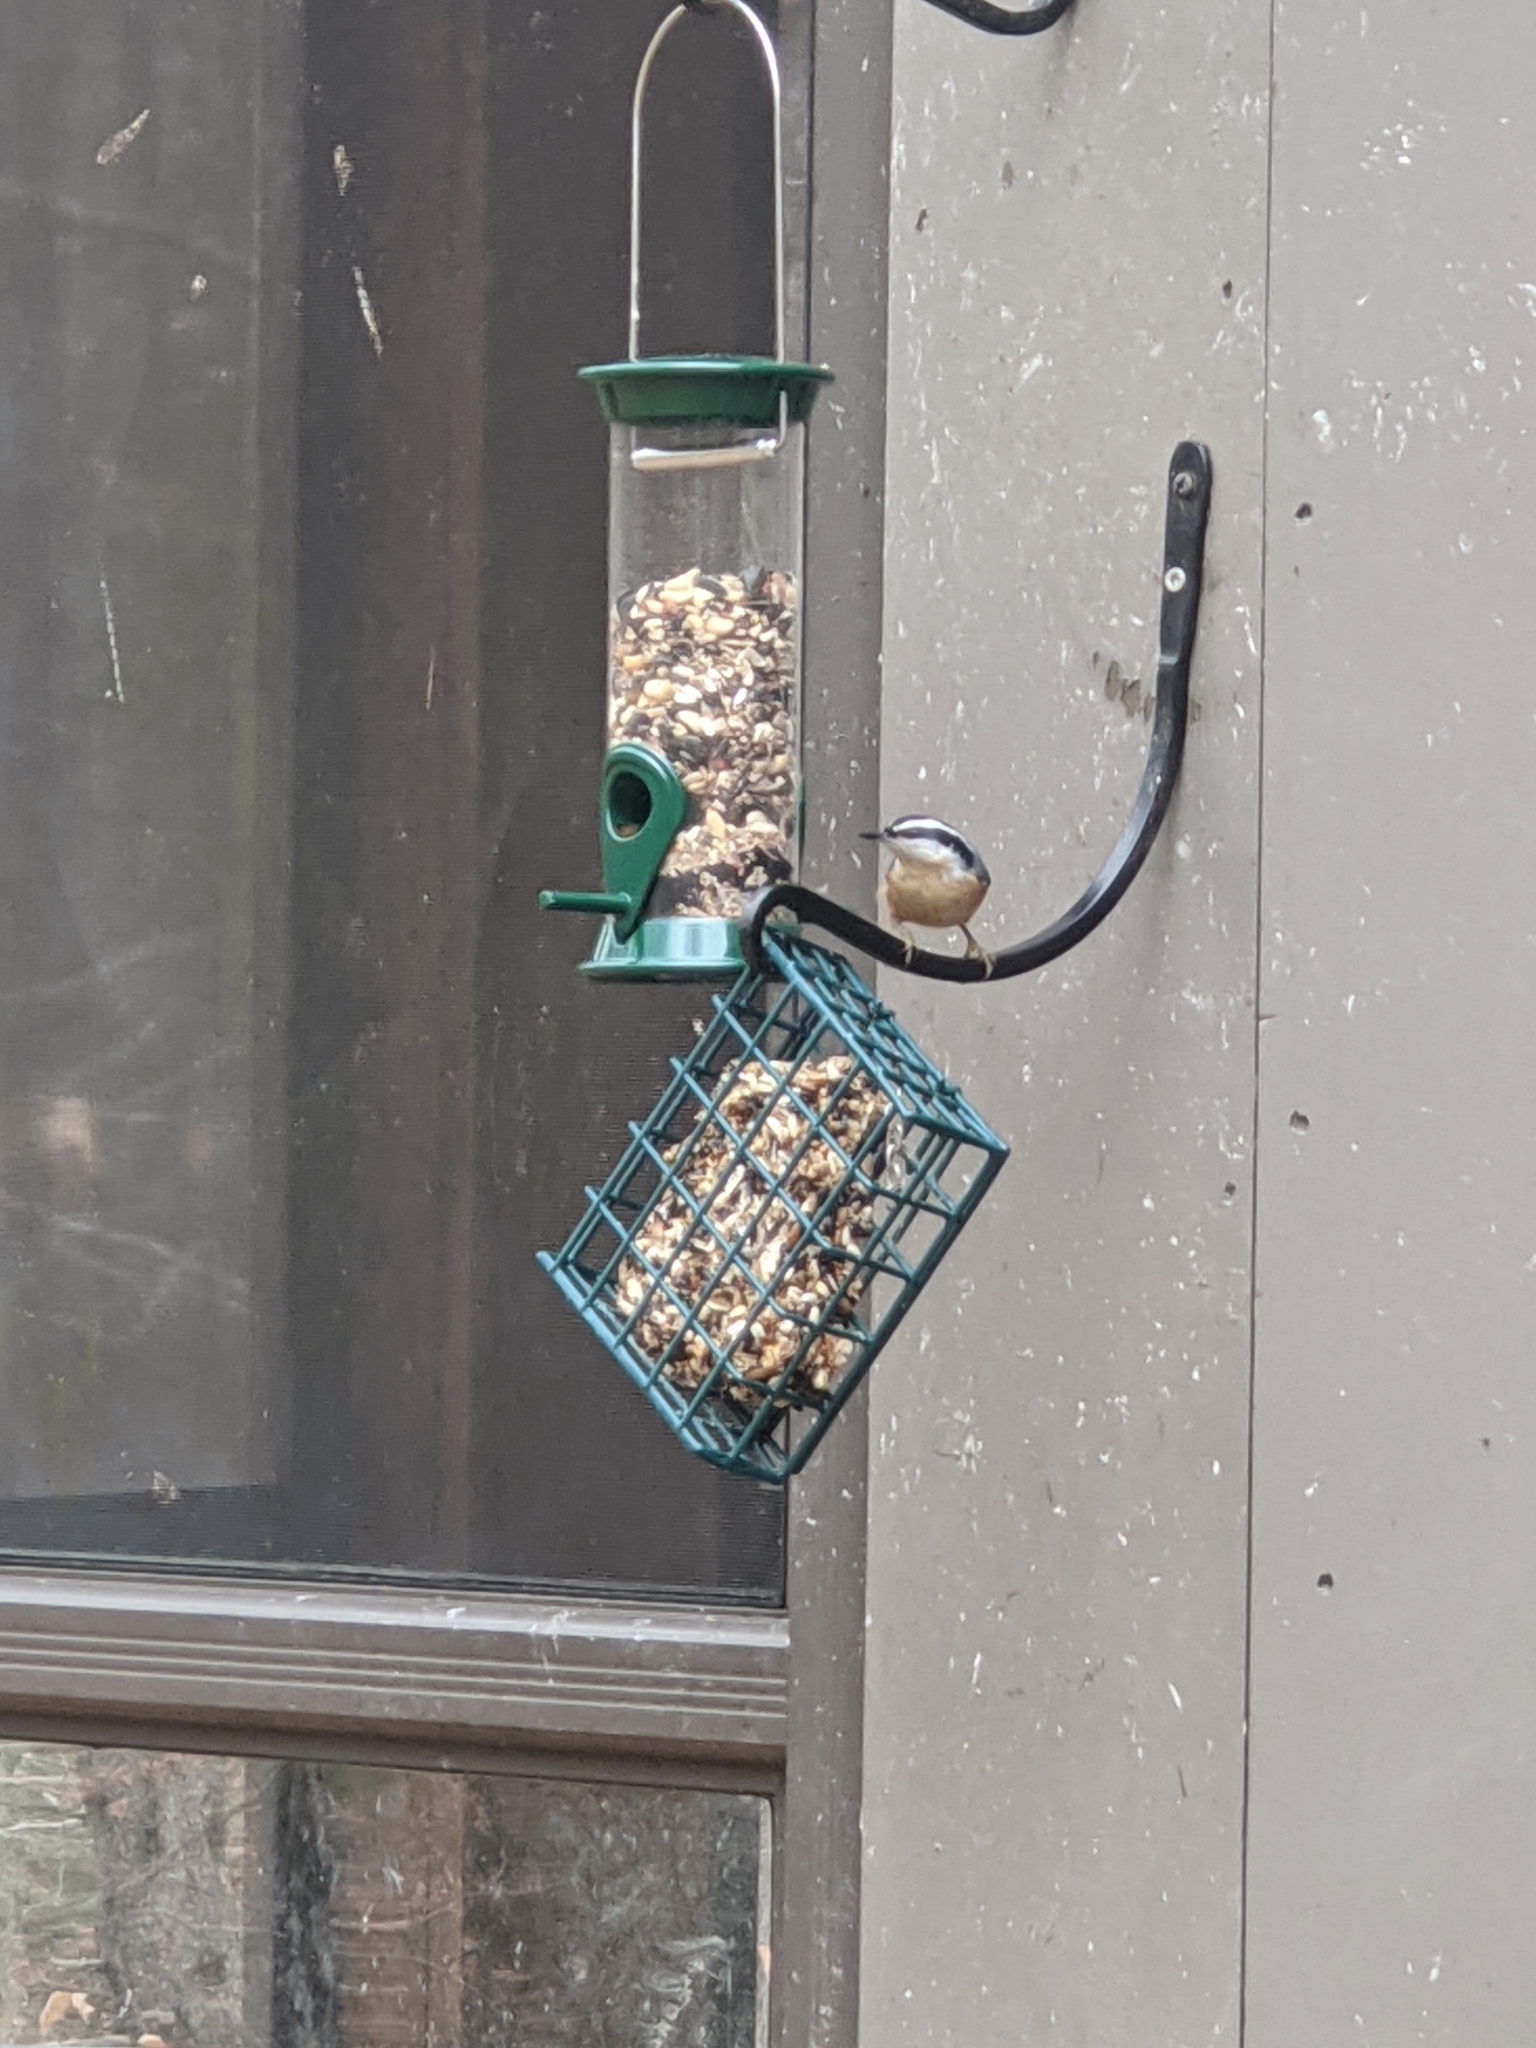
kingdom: Animalia
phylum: Chordata
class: Aves
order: Passeriformes
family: Sittidae
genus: Sitta
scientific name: Sitta canadensis
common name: Red-breasted nuthatch
